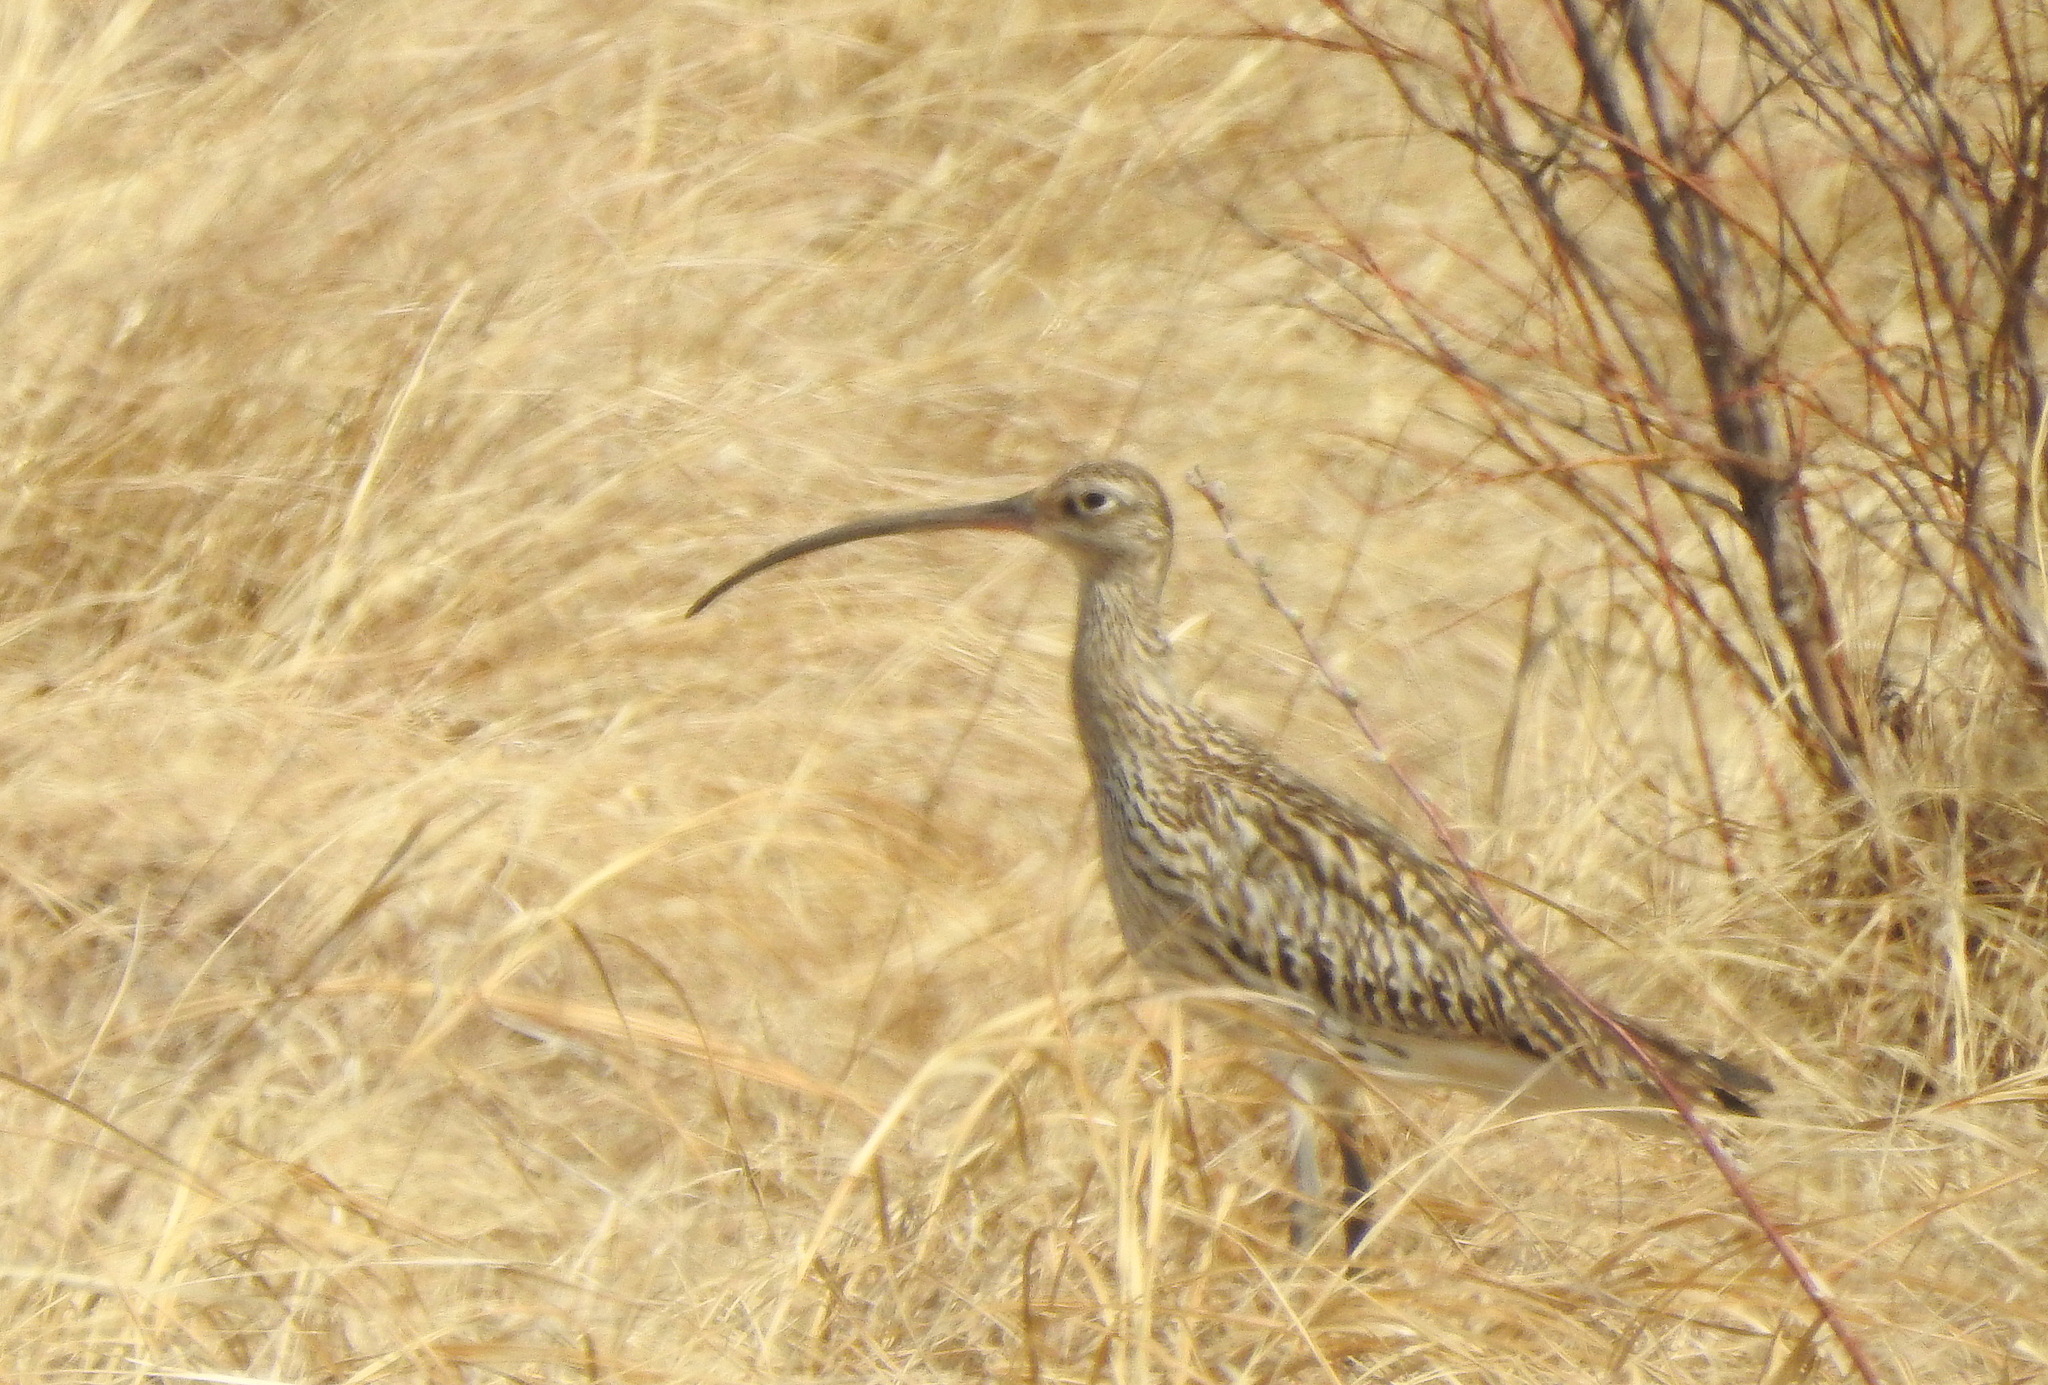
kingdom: Animalia
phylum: Chordata
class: Aves
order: Charadriiformes
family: Scolopacidae
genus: Numenius
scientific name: Numenius arquata
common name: Eurasian curlew
